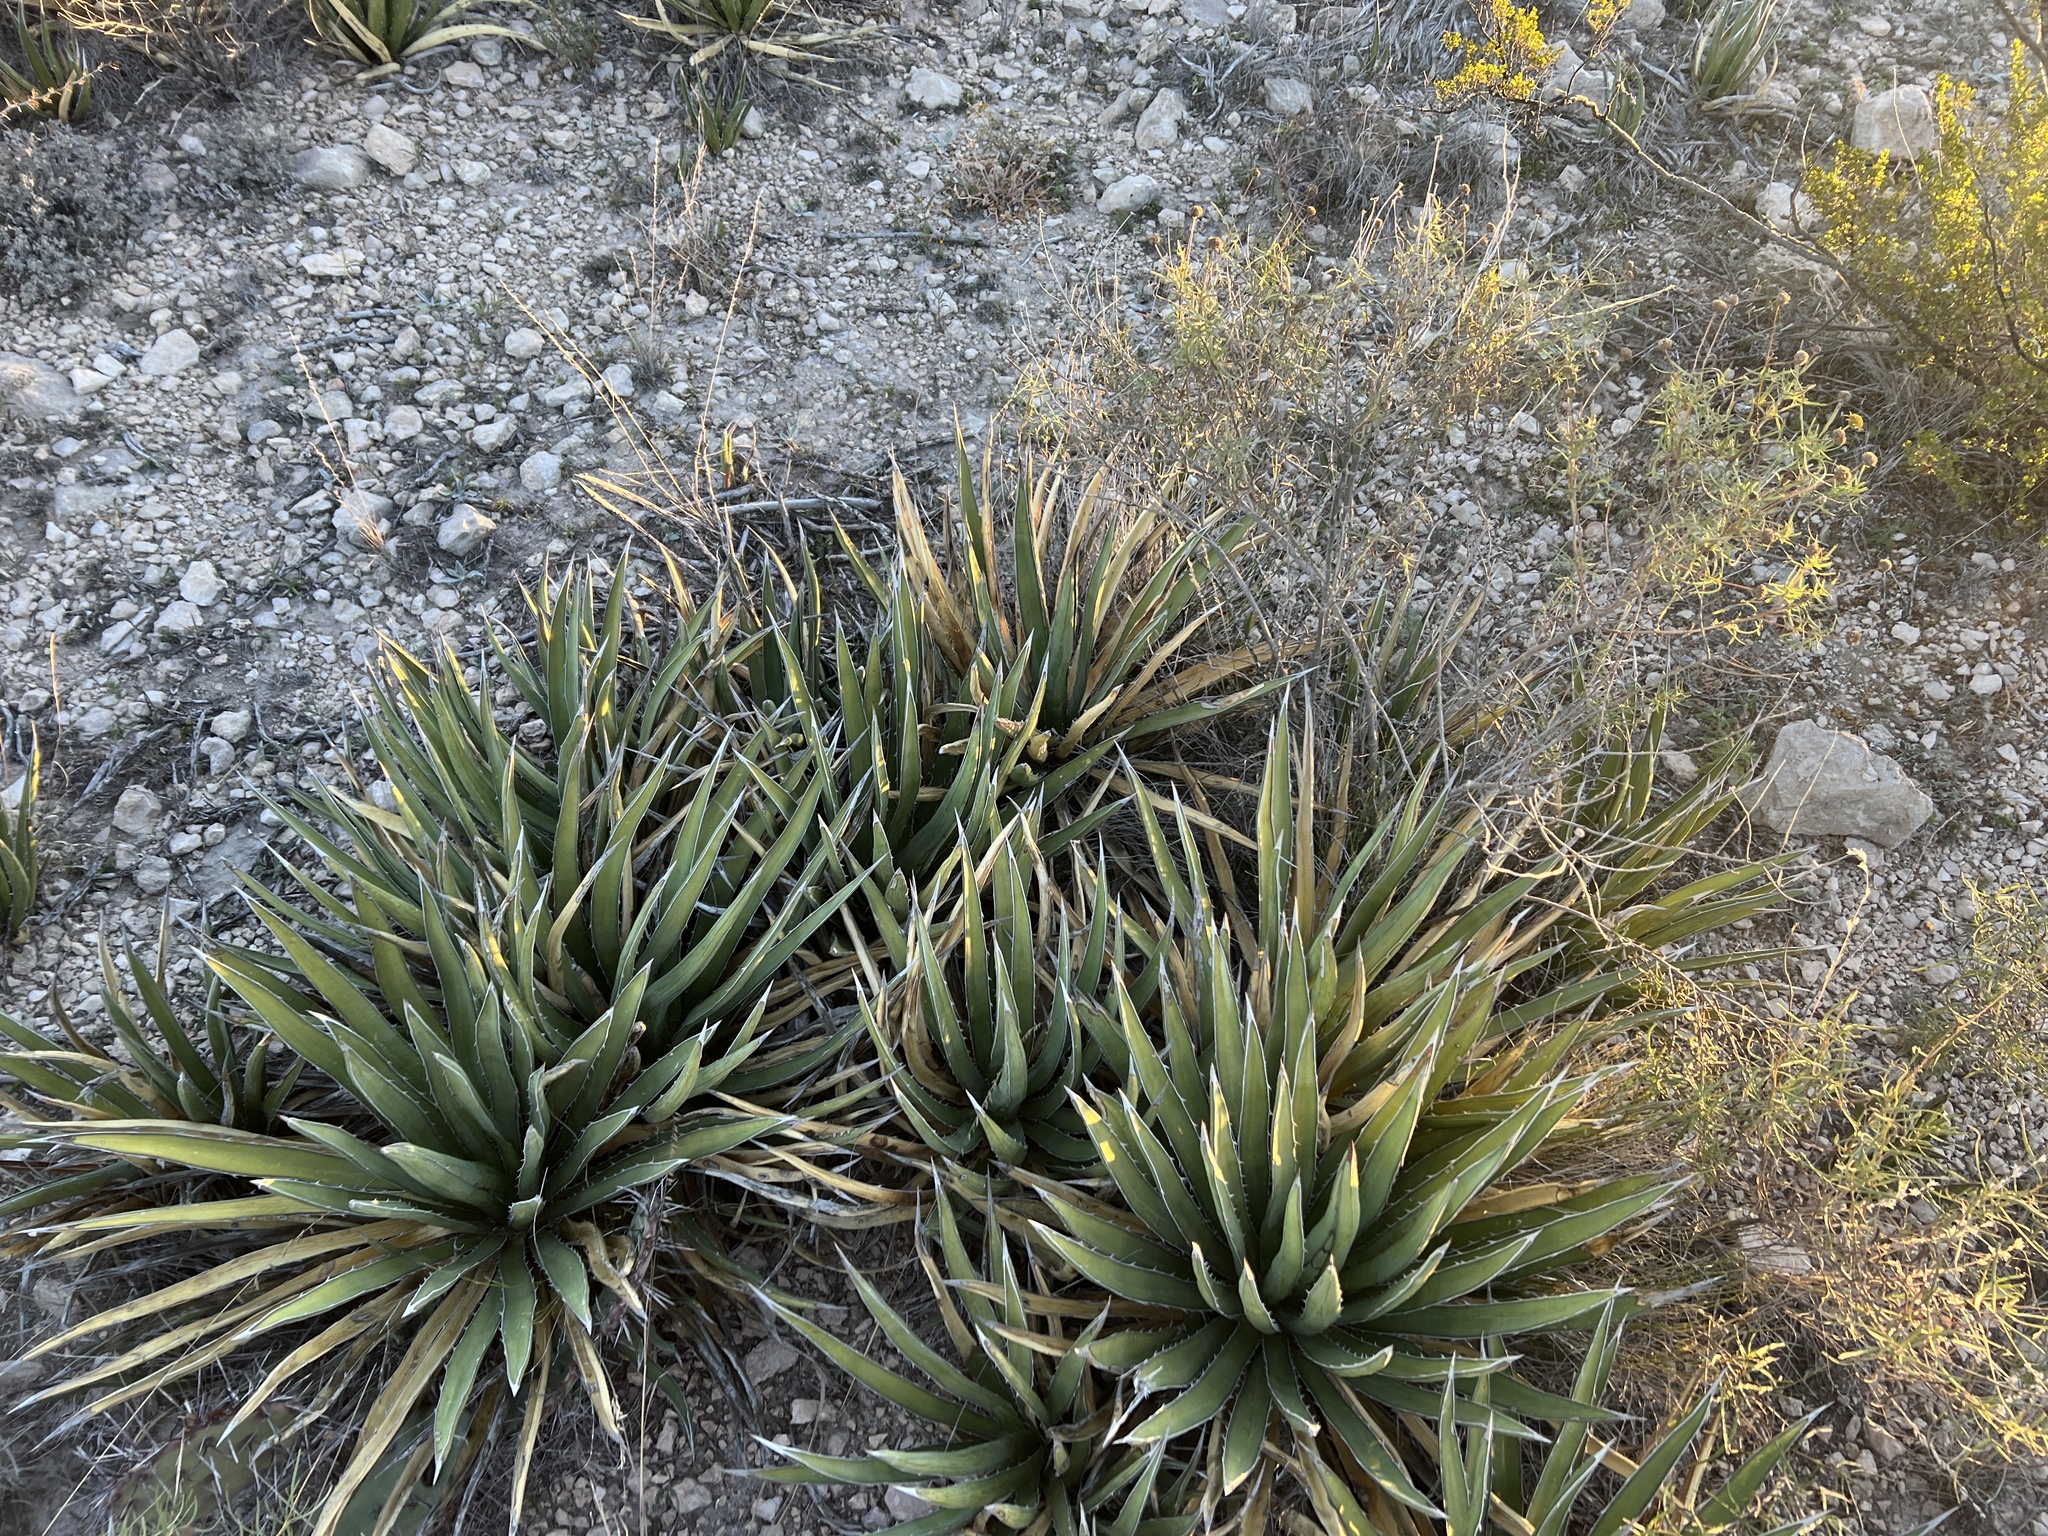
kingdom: Plantae
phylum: Tracheophyta
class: Liliopsida
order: Asparagales
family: Asparagaceae
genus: Agave
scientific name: Agave lechuguilla
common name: Lecheguilla agave
